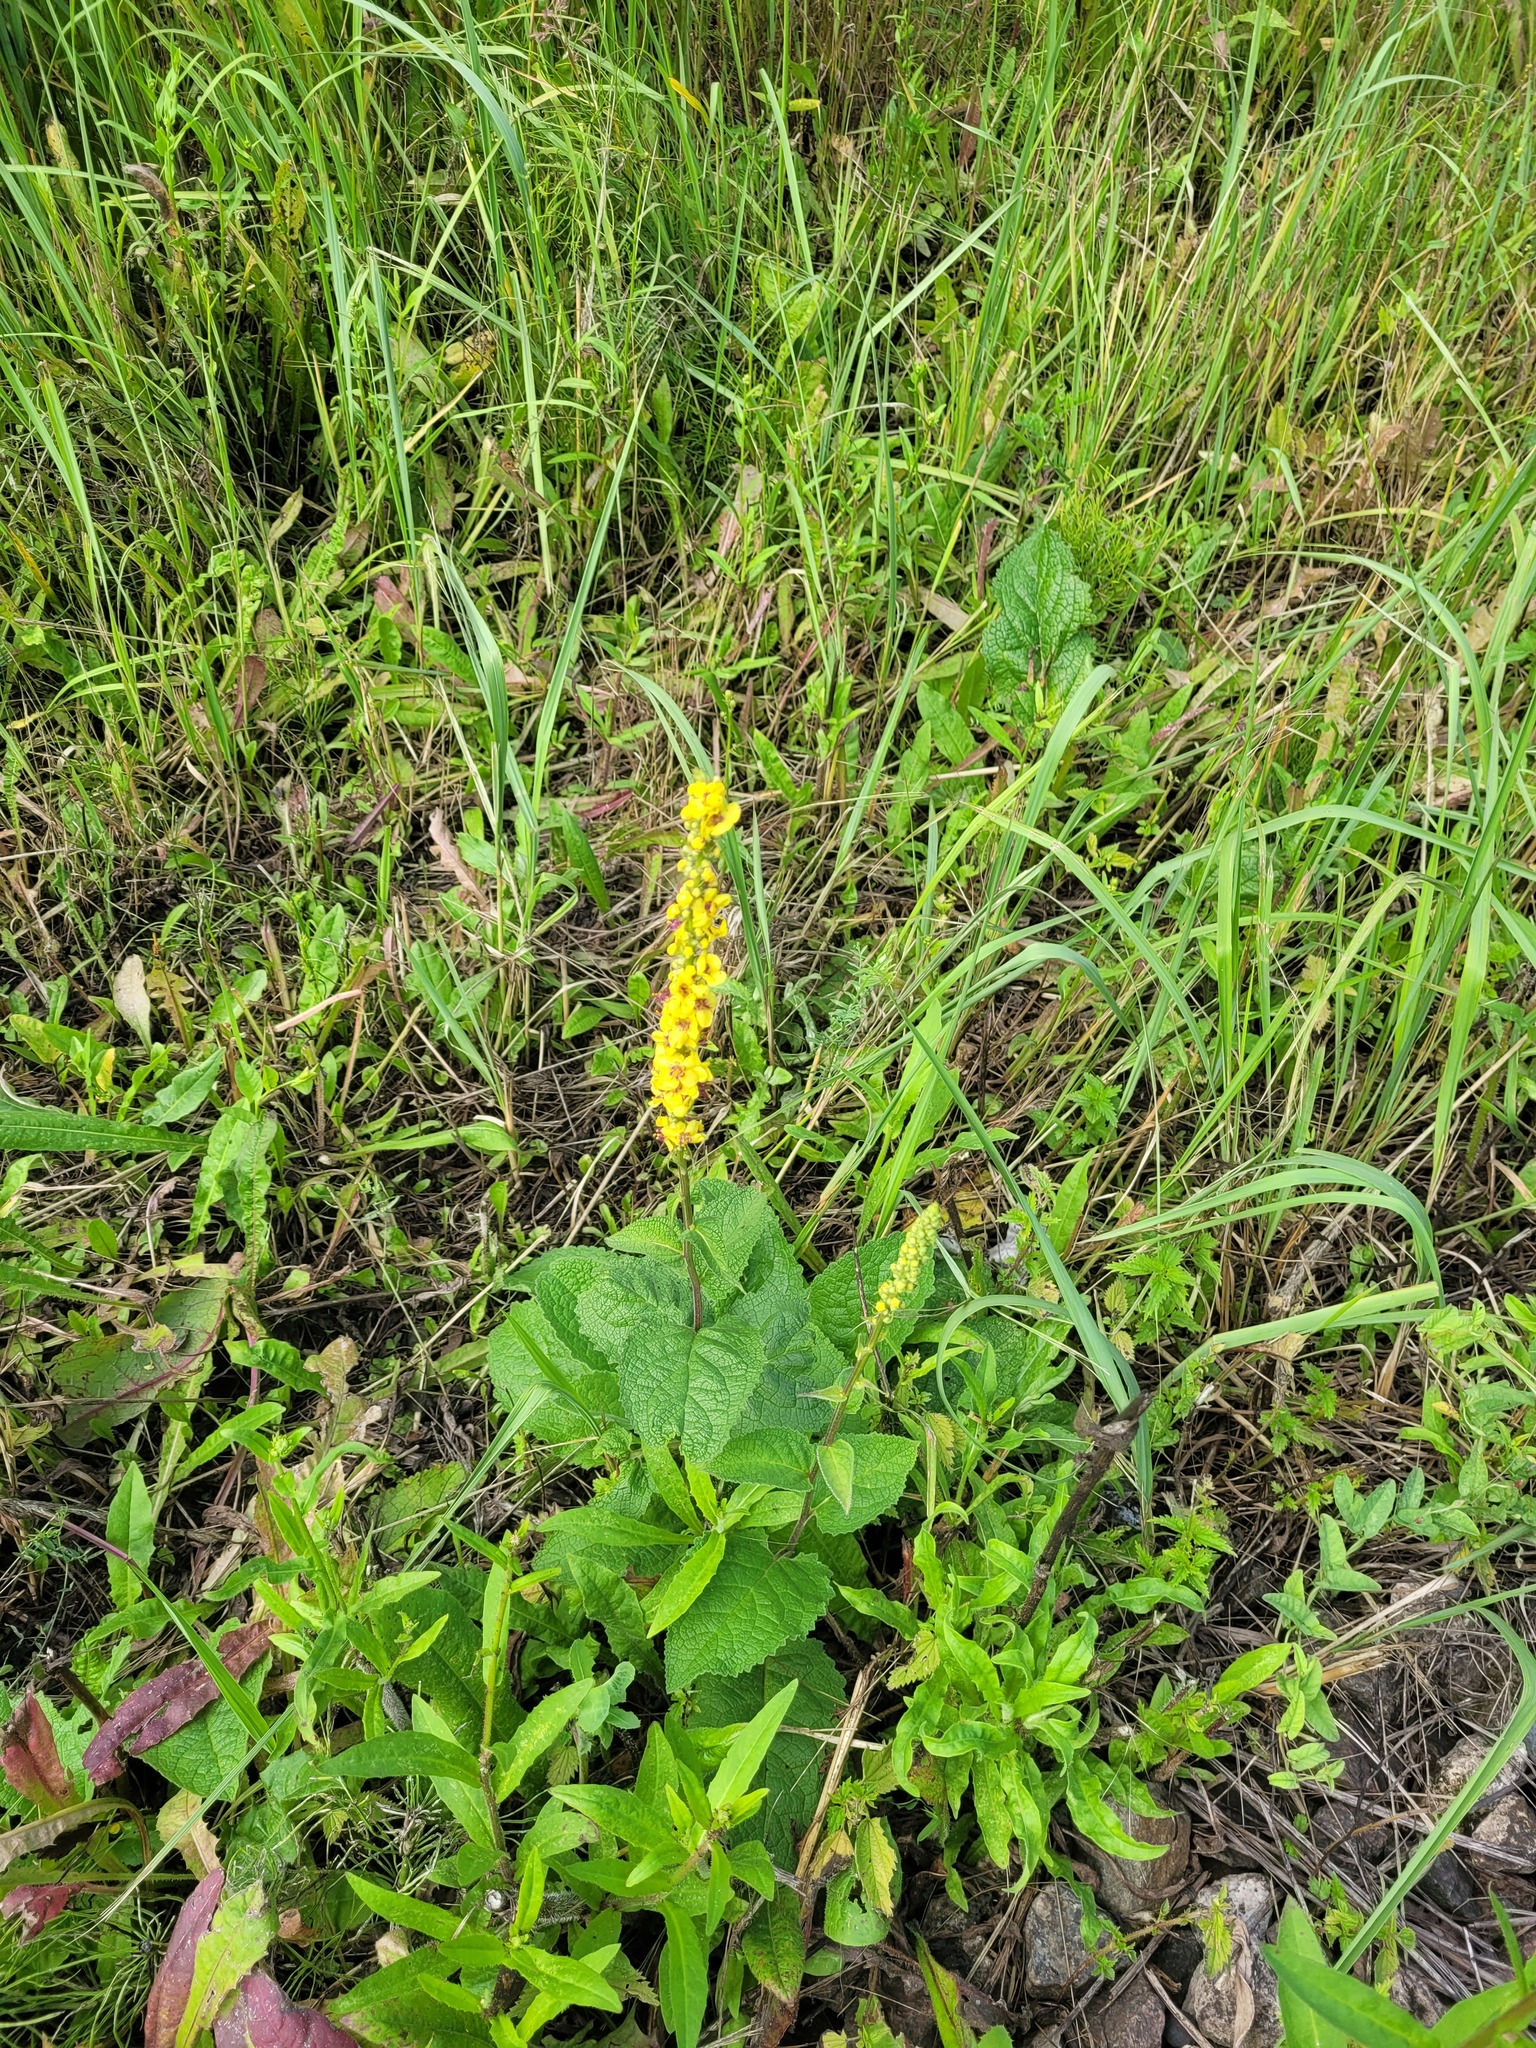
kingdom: Plantae
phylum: Tracheophyta
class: Magnoliopsida
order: Lamiales
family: Scrophulariaceae
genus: Verbascum
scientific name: Verbascum nigrum
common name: Dark mullein
